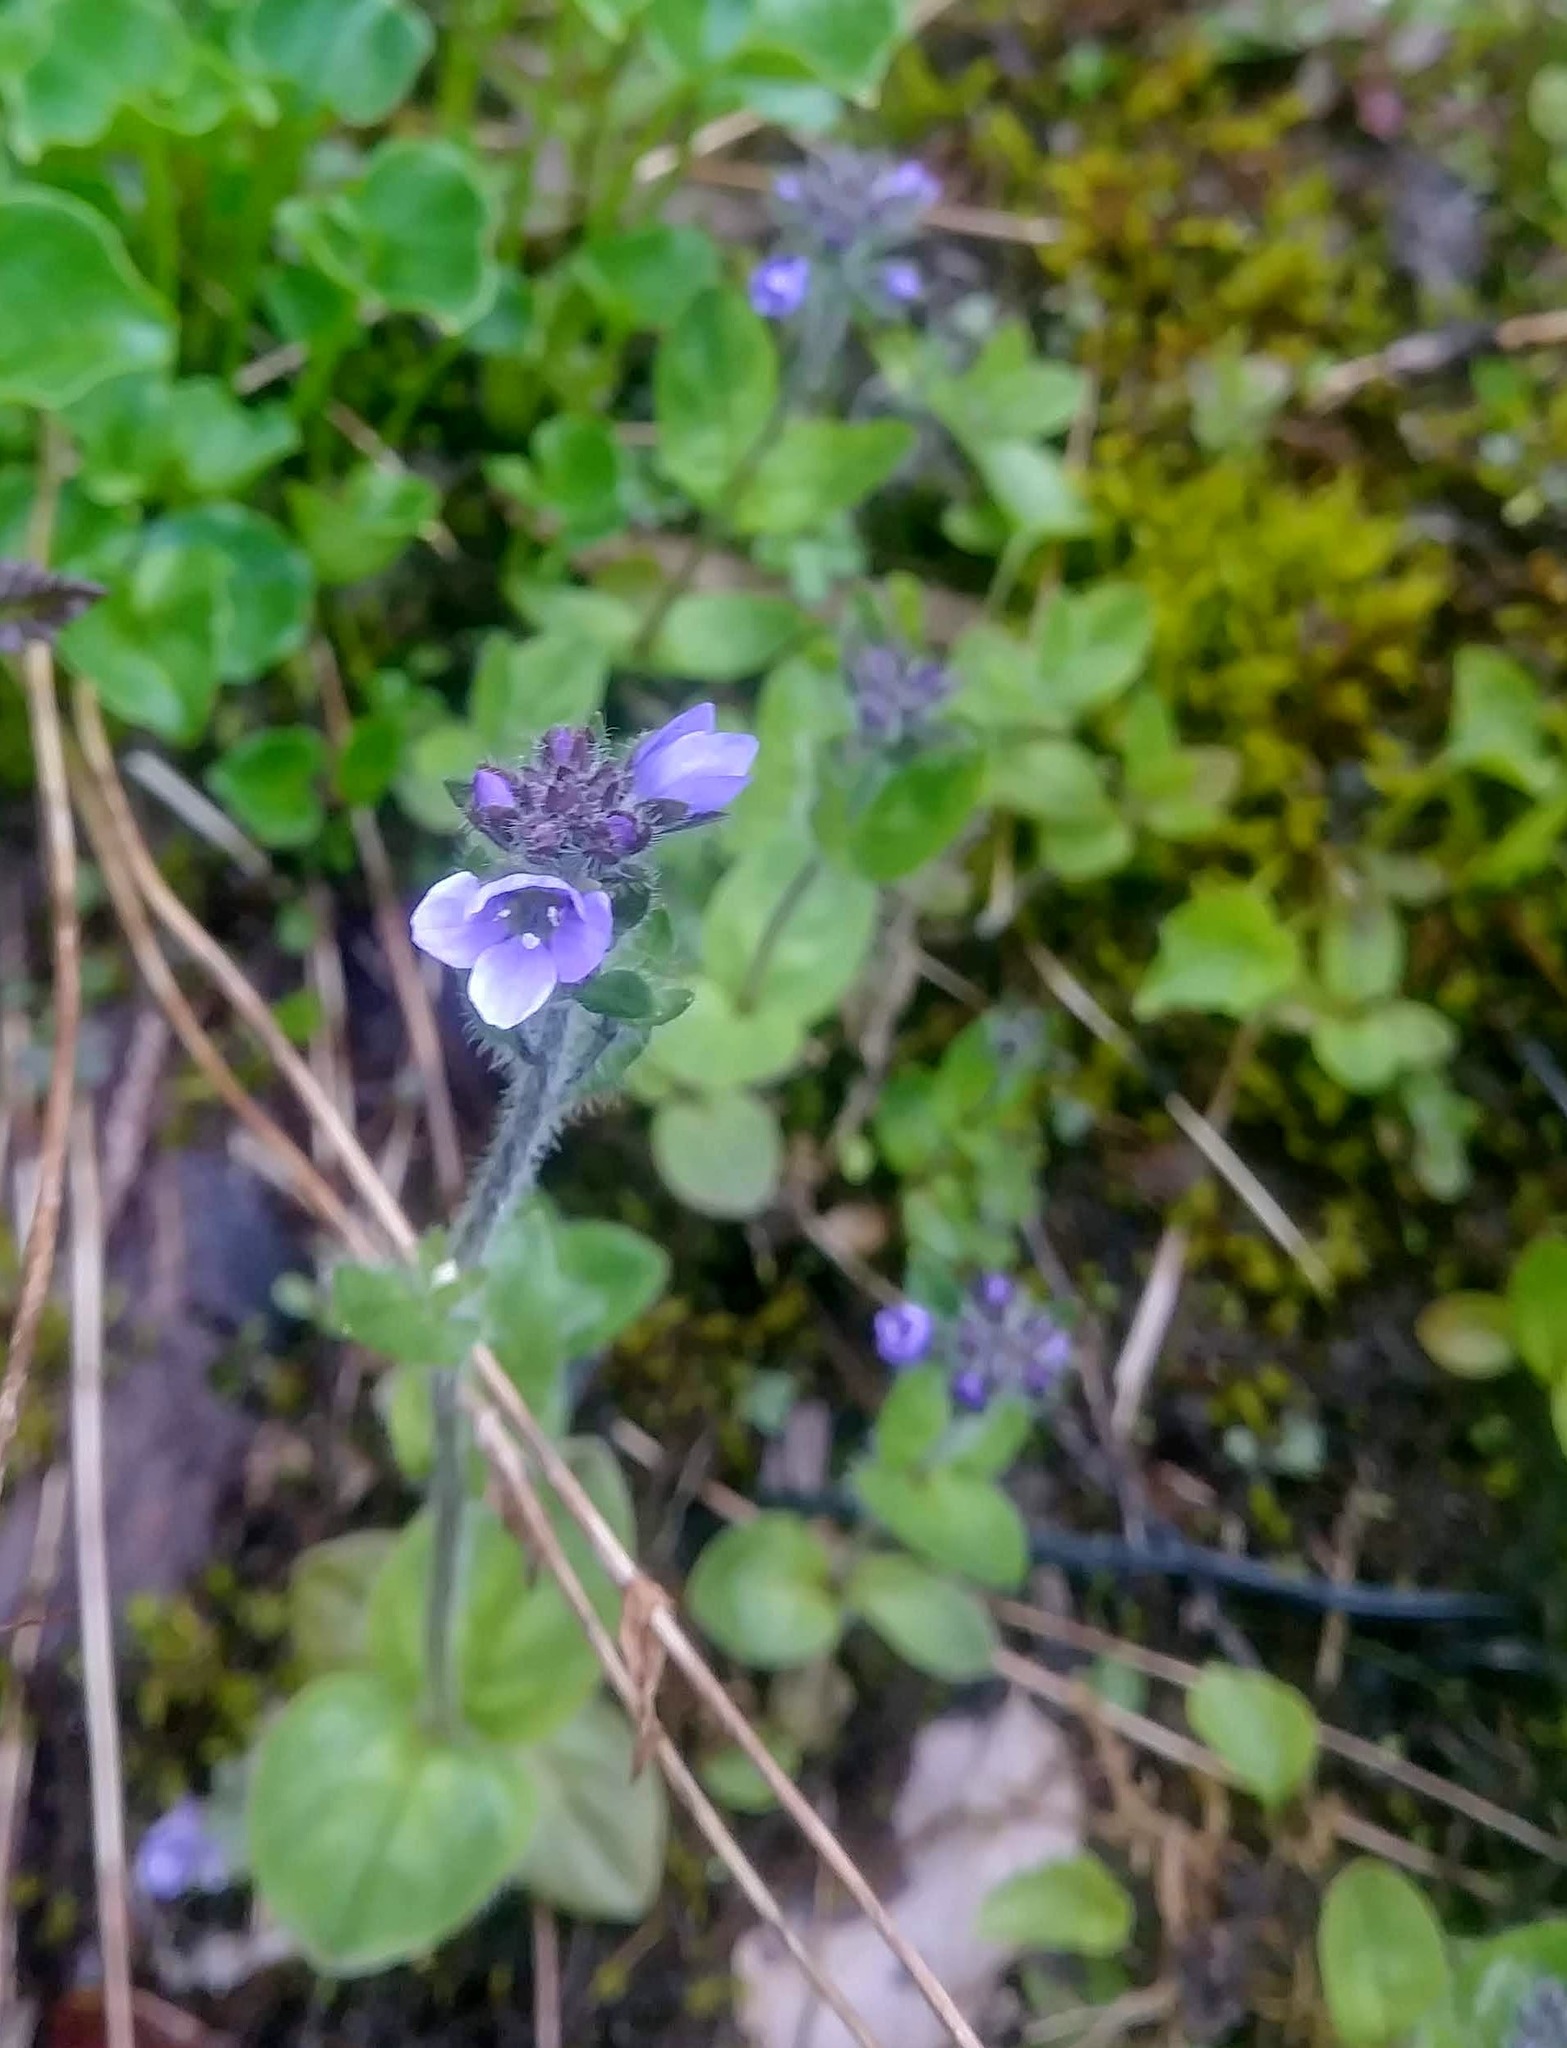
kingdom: Plantae
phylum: Tracheophyta
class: Magnoliopsida
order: Lamiales
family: Plantaginaceae
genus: Veronica
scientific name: Veronica wormskjoldii
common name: American alpine speedwell
